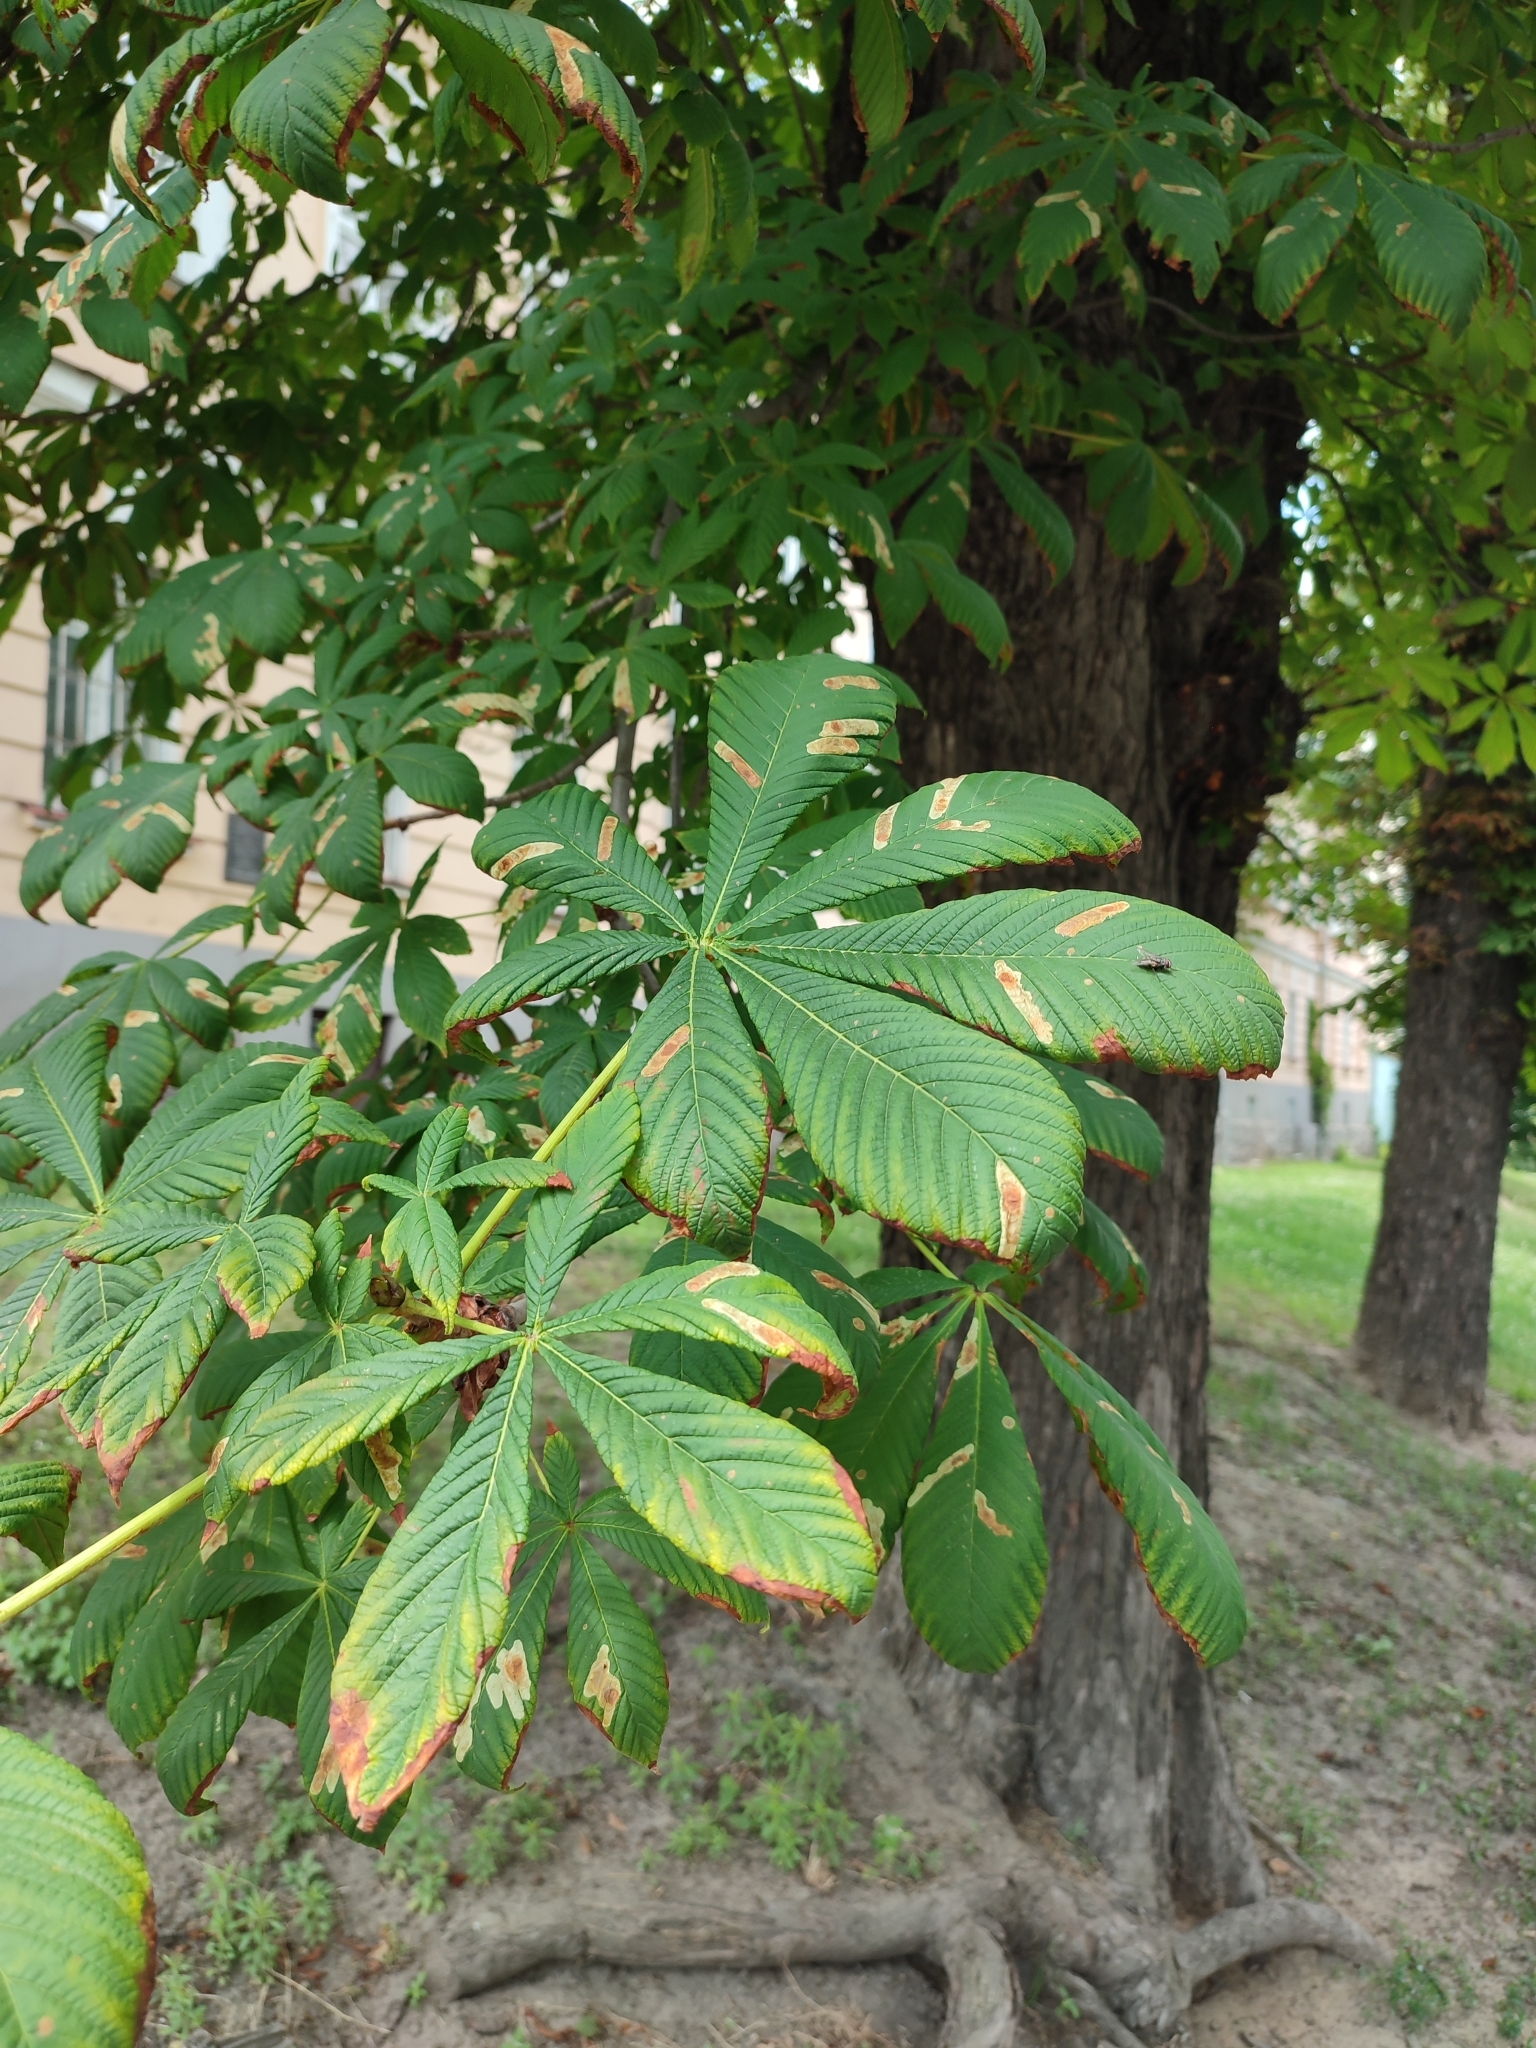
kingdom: Animalia
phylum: Arthropoda
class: Insecta
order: Lepidoptera
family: Gracillariidae
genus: Cameraria
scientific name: Cameraria ohridella
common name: Horse-chestnut leaf-miner
